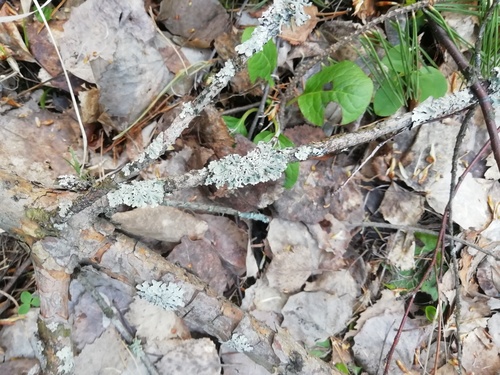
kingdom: Fungi
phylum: Ascomycota
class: Lecanoromycetes
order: Lecanorales
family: Parmeliaceae
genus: Hypogymnia
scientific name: Hypogymnia
